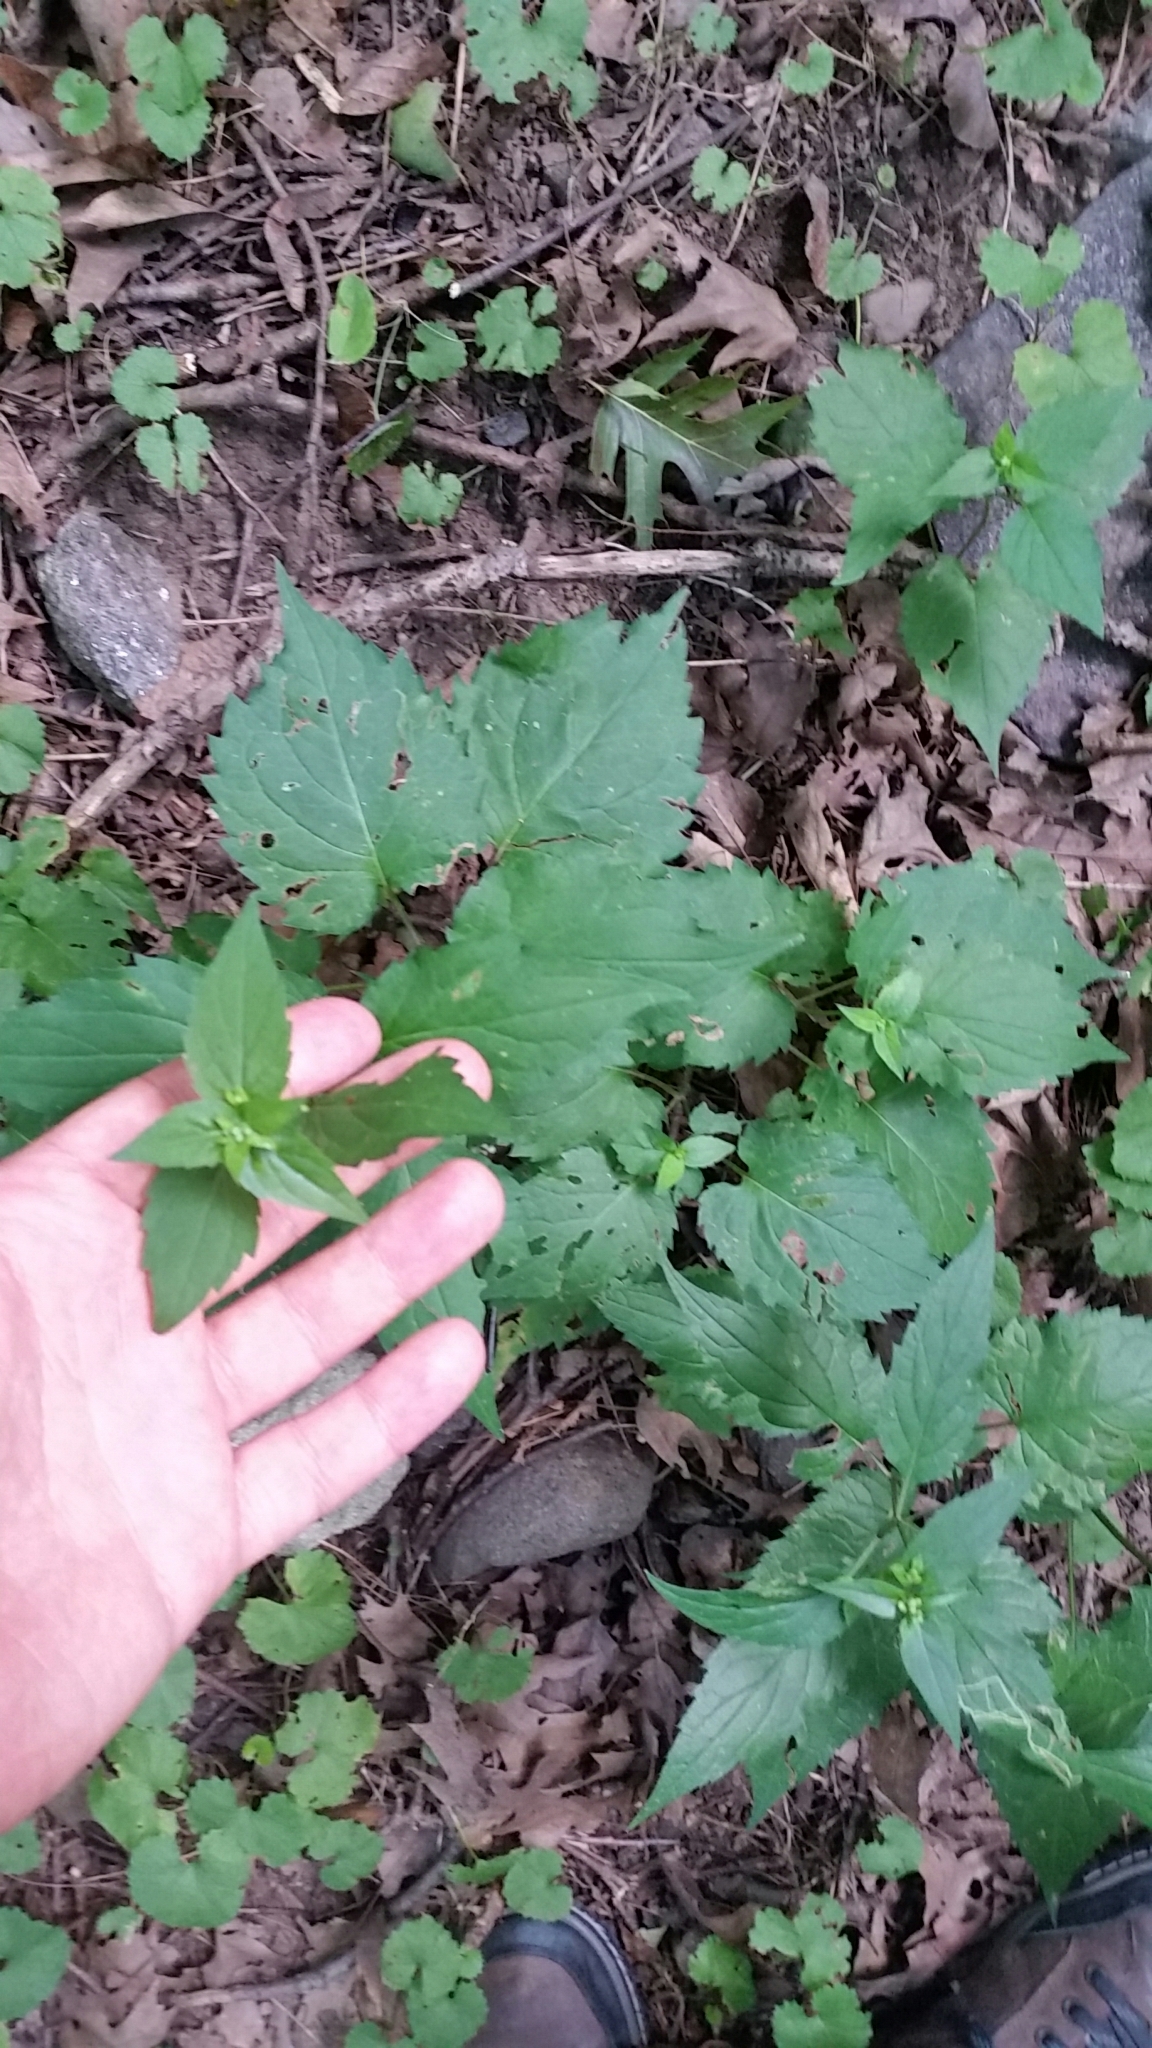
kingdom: Plantae
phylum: Tracheophyta
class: Magnoliopsida
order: Asterales
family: Asteraceae
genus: Eurybia
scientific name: Eurybia divaricata
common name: White wood aster
